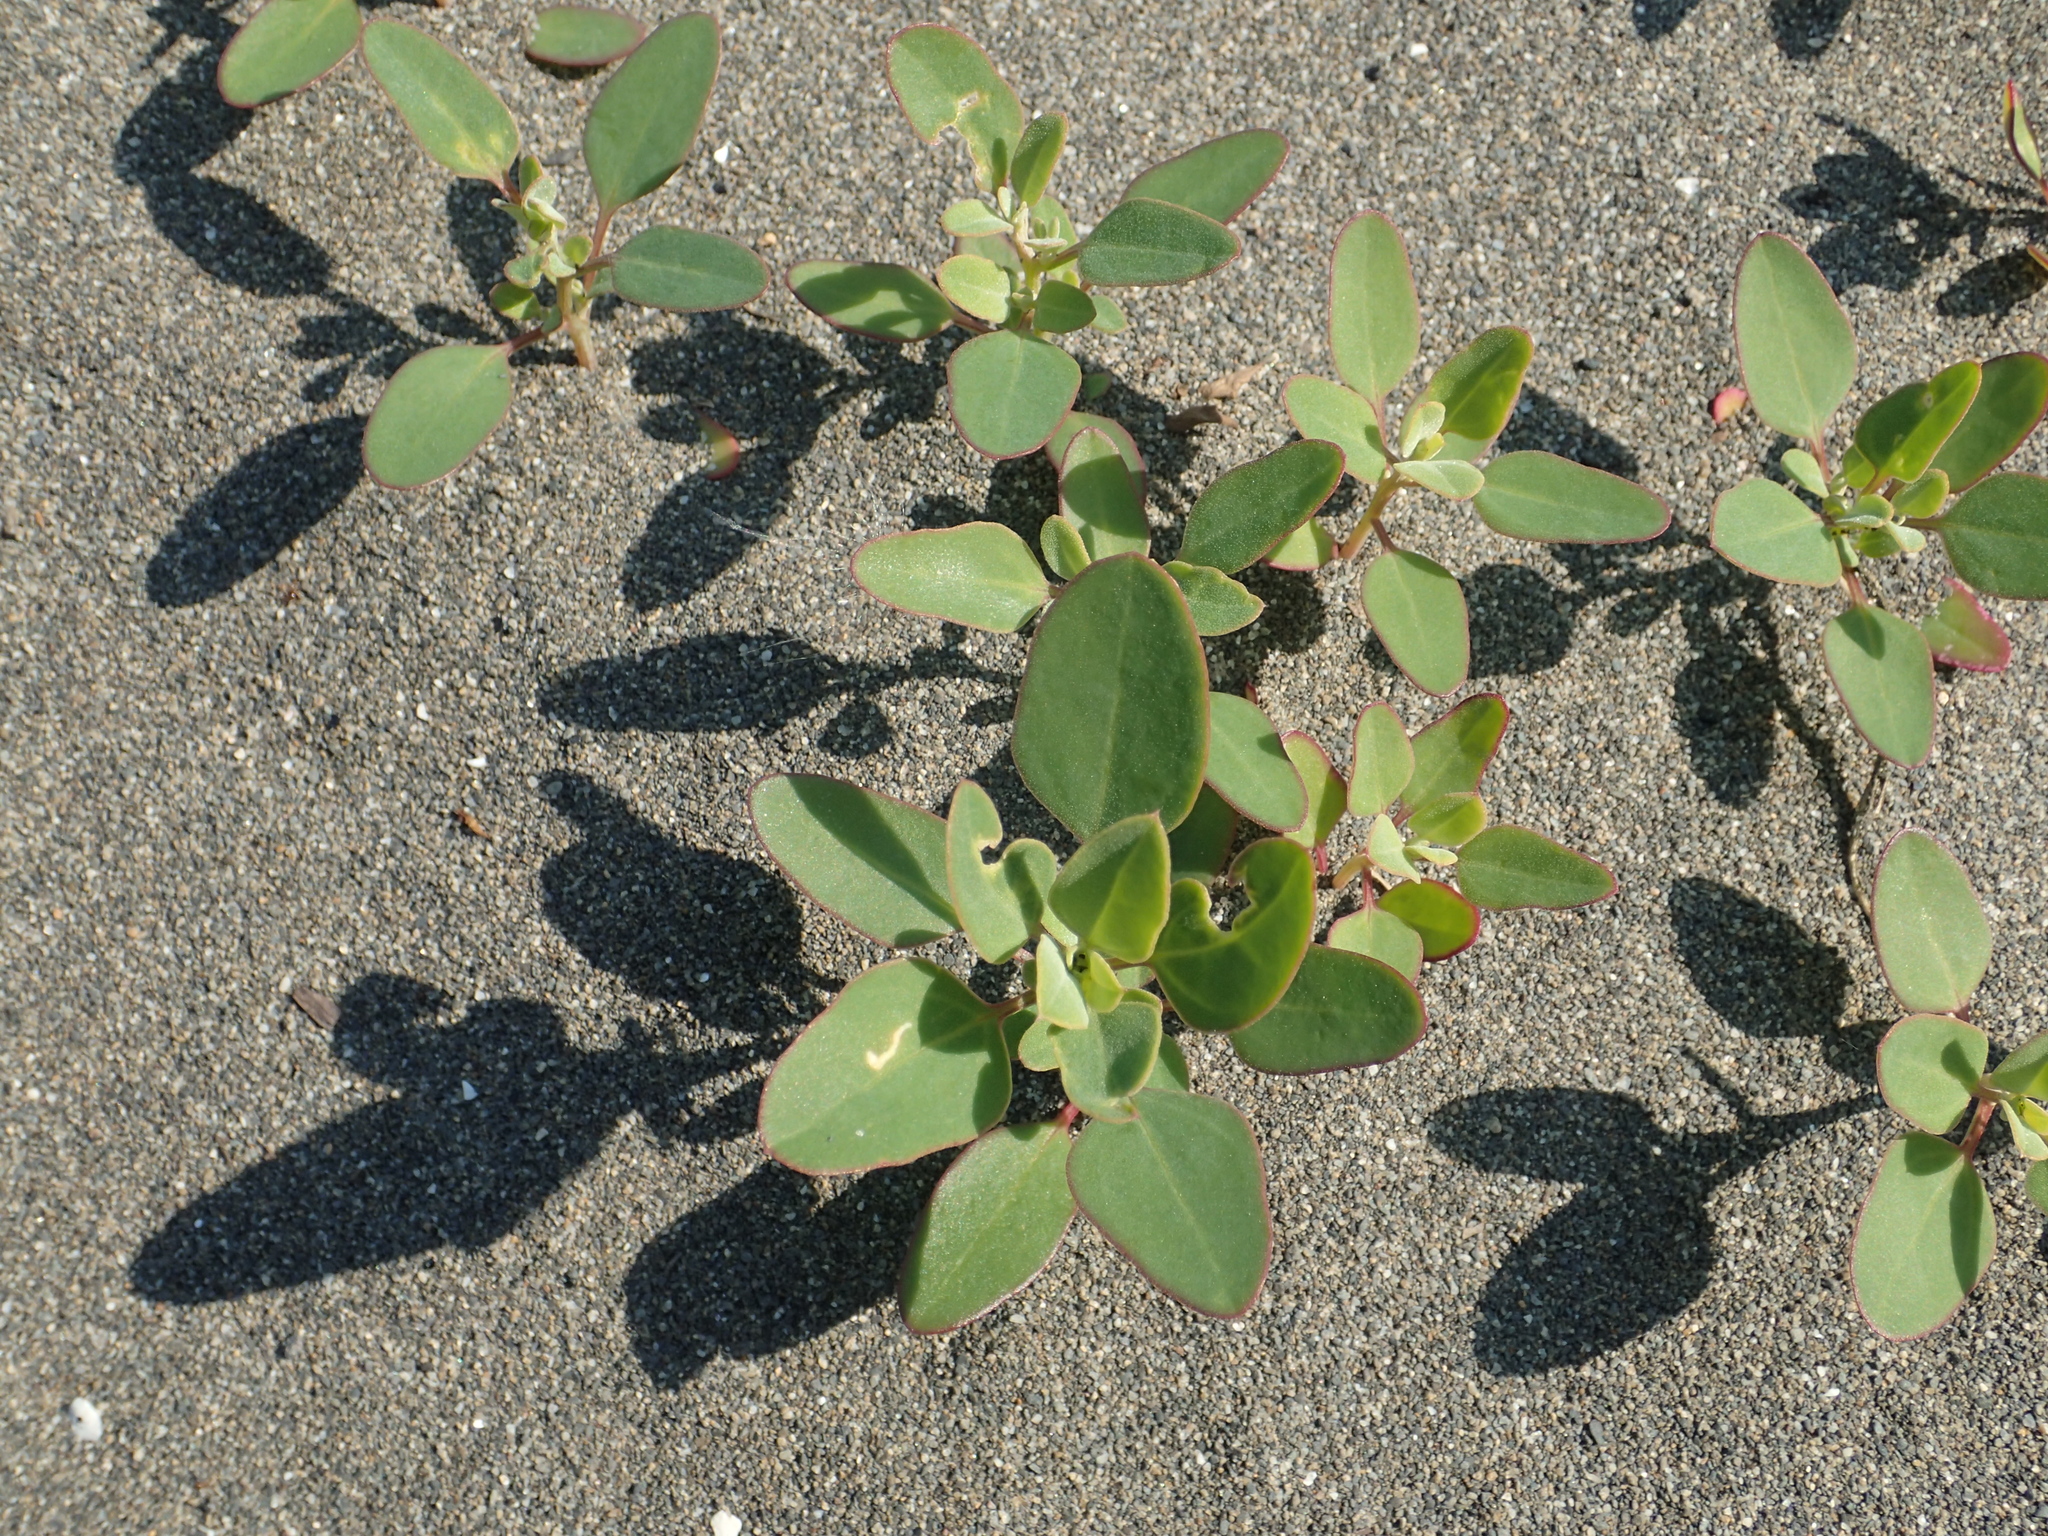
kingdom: Plantae
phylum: Tracheophyta
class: Magnoliopsida
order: Caryophyllales
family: Amaranthaceae
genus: Chenopodium
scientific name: Chenopodium acuminatum
